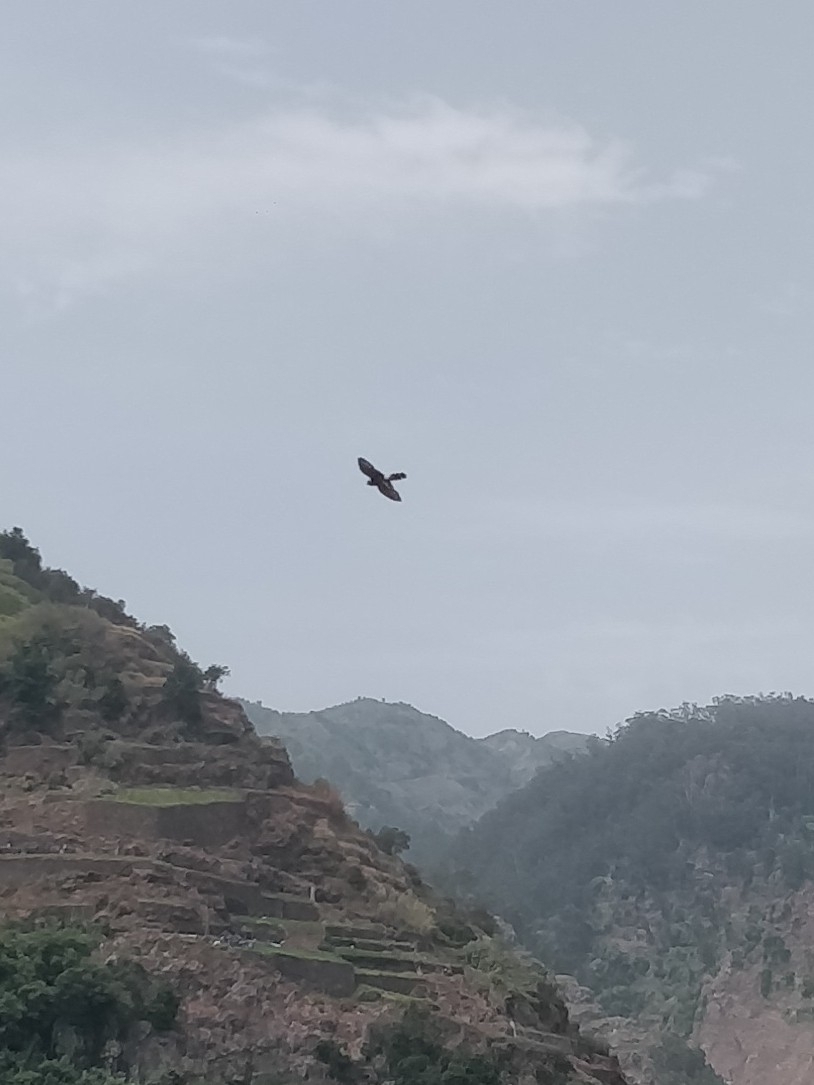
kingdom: Animalia
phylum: Chordata
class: Aves
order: Falconiformes
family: Falconidae
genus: Falco
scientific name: Falco tinnunculus
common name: Common kestrel
